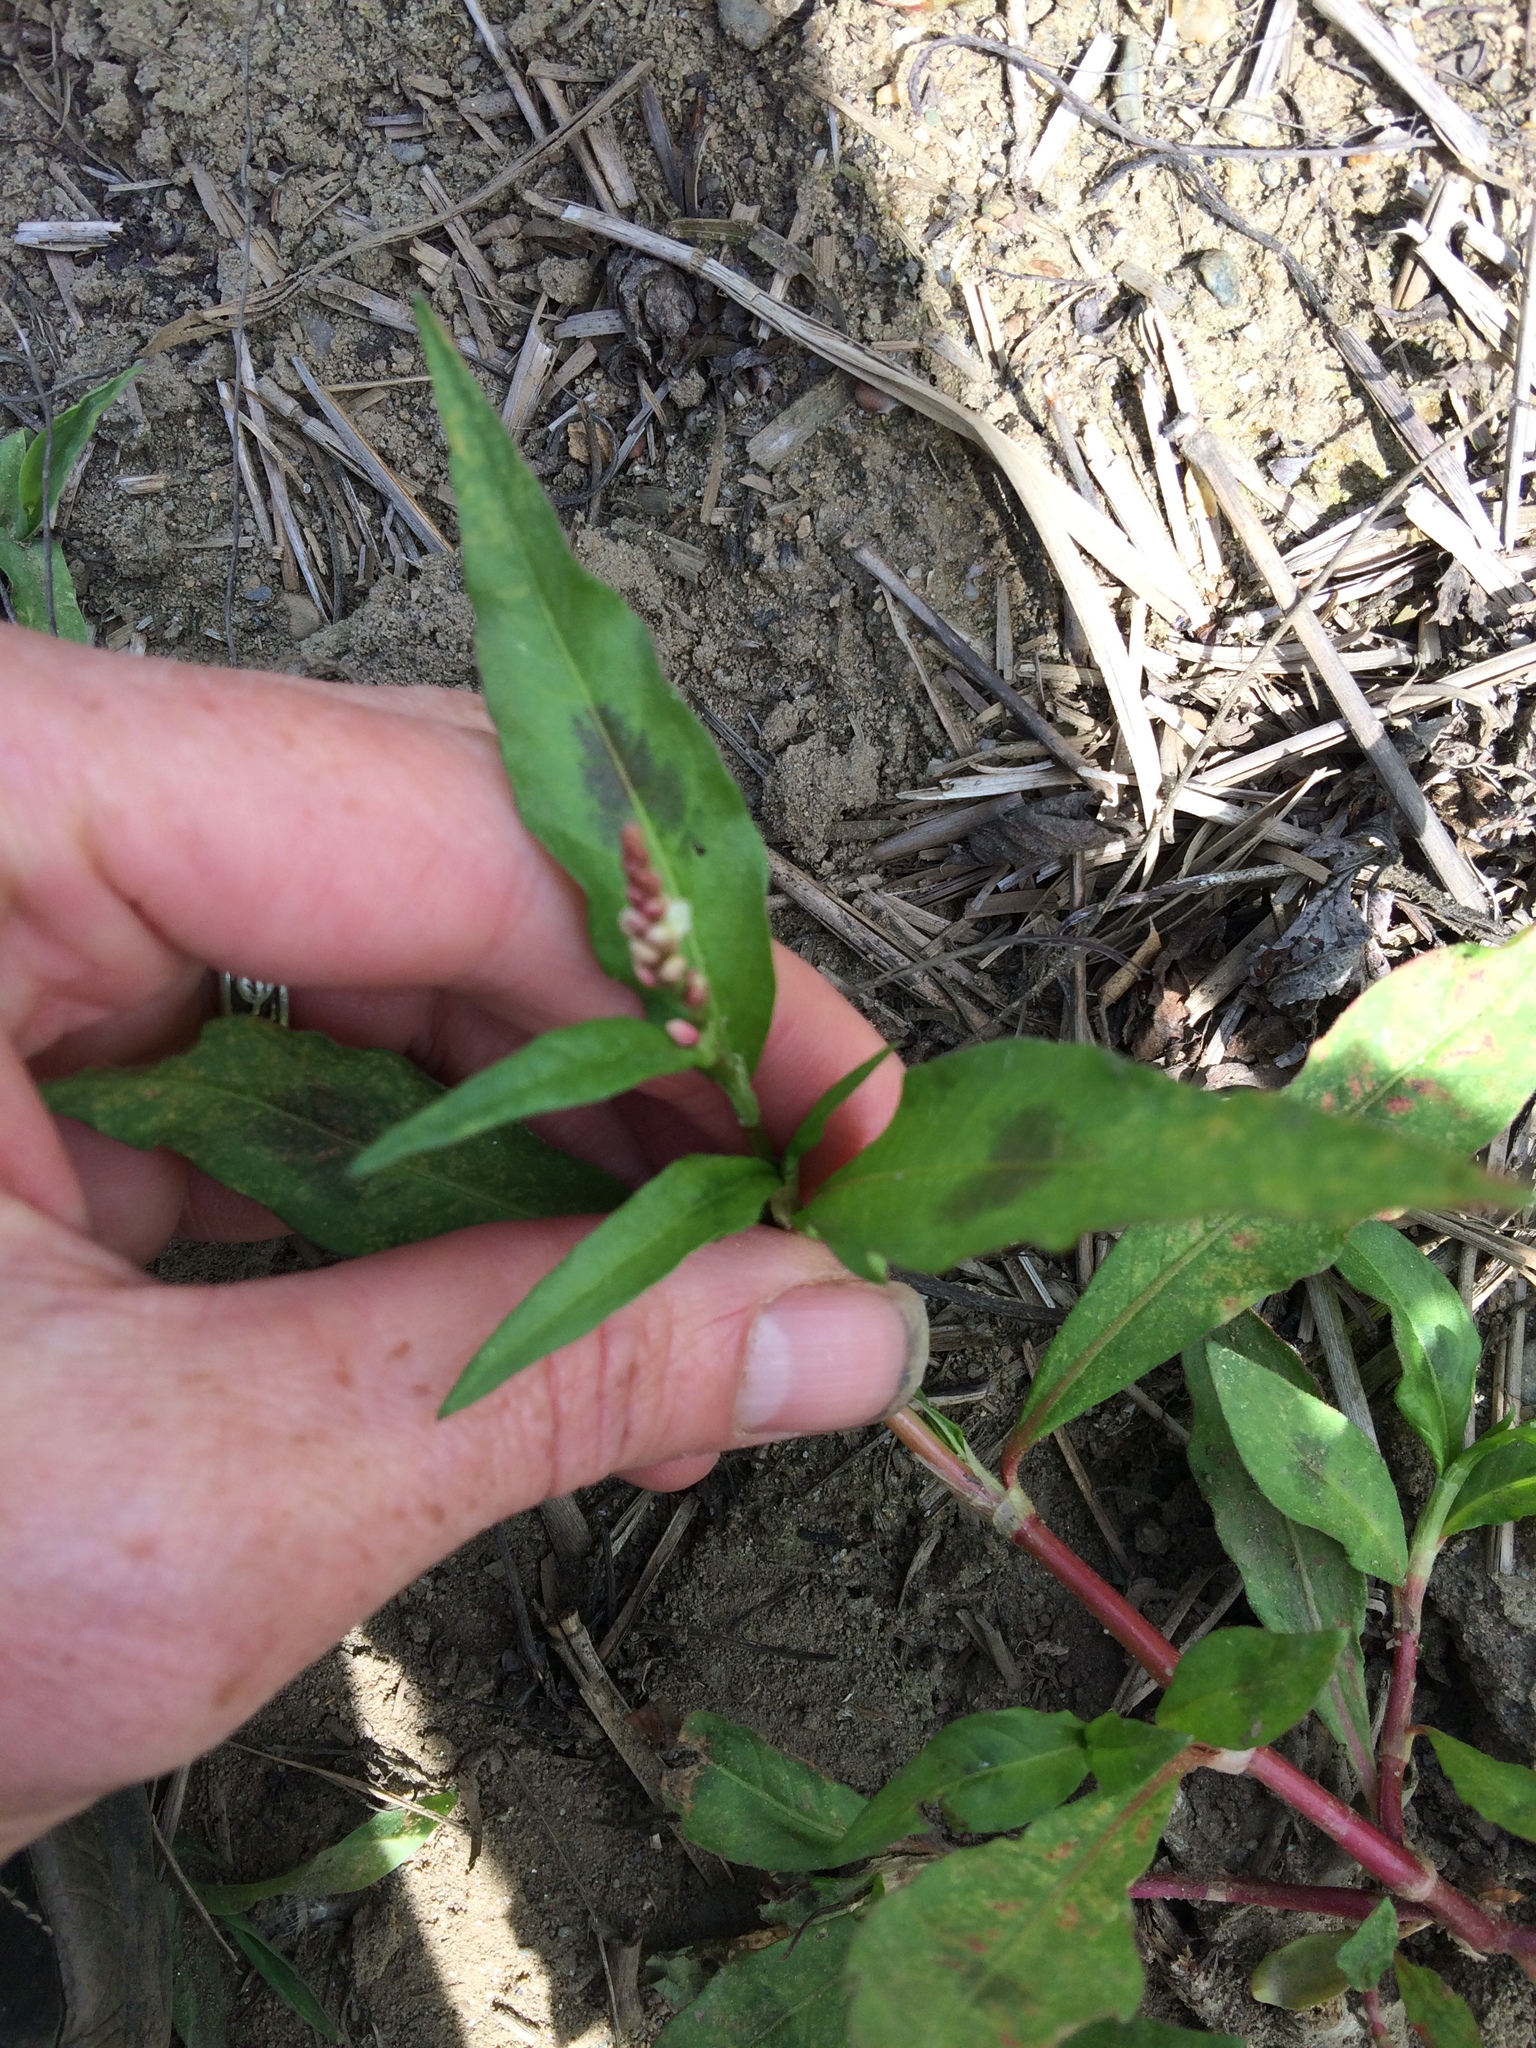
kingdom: Plantae
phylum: Tracheophyta
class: Magnoliopsida
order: Caryophyllales
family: Polygonaceae
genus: Persicaria
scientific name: Persicaria maculosa
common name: Redshank
